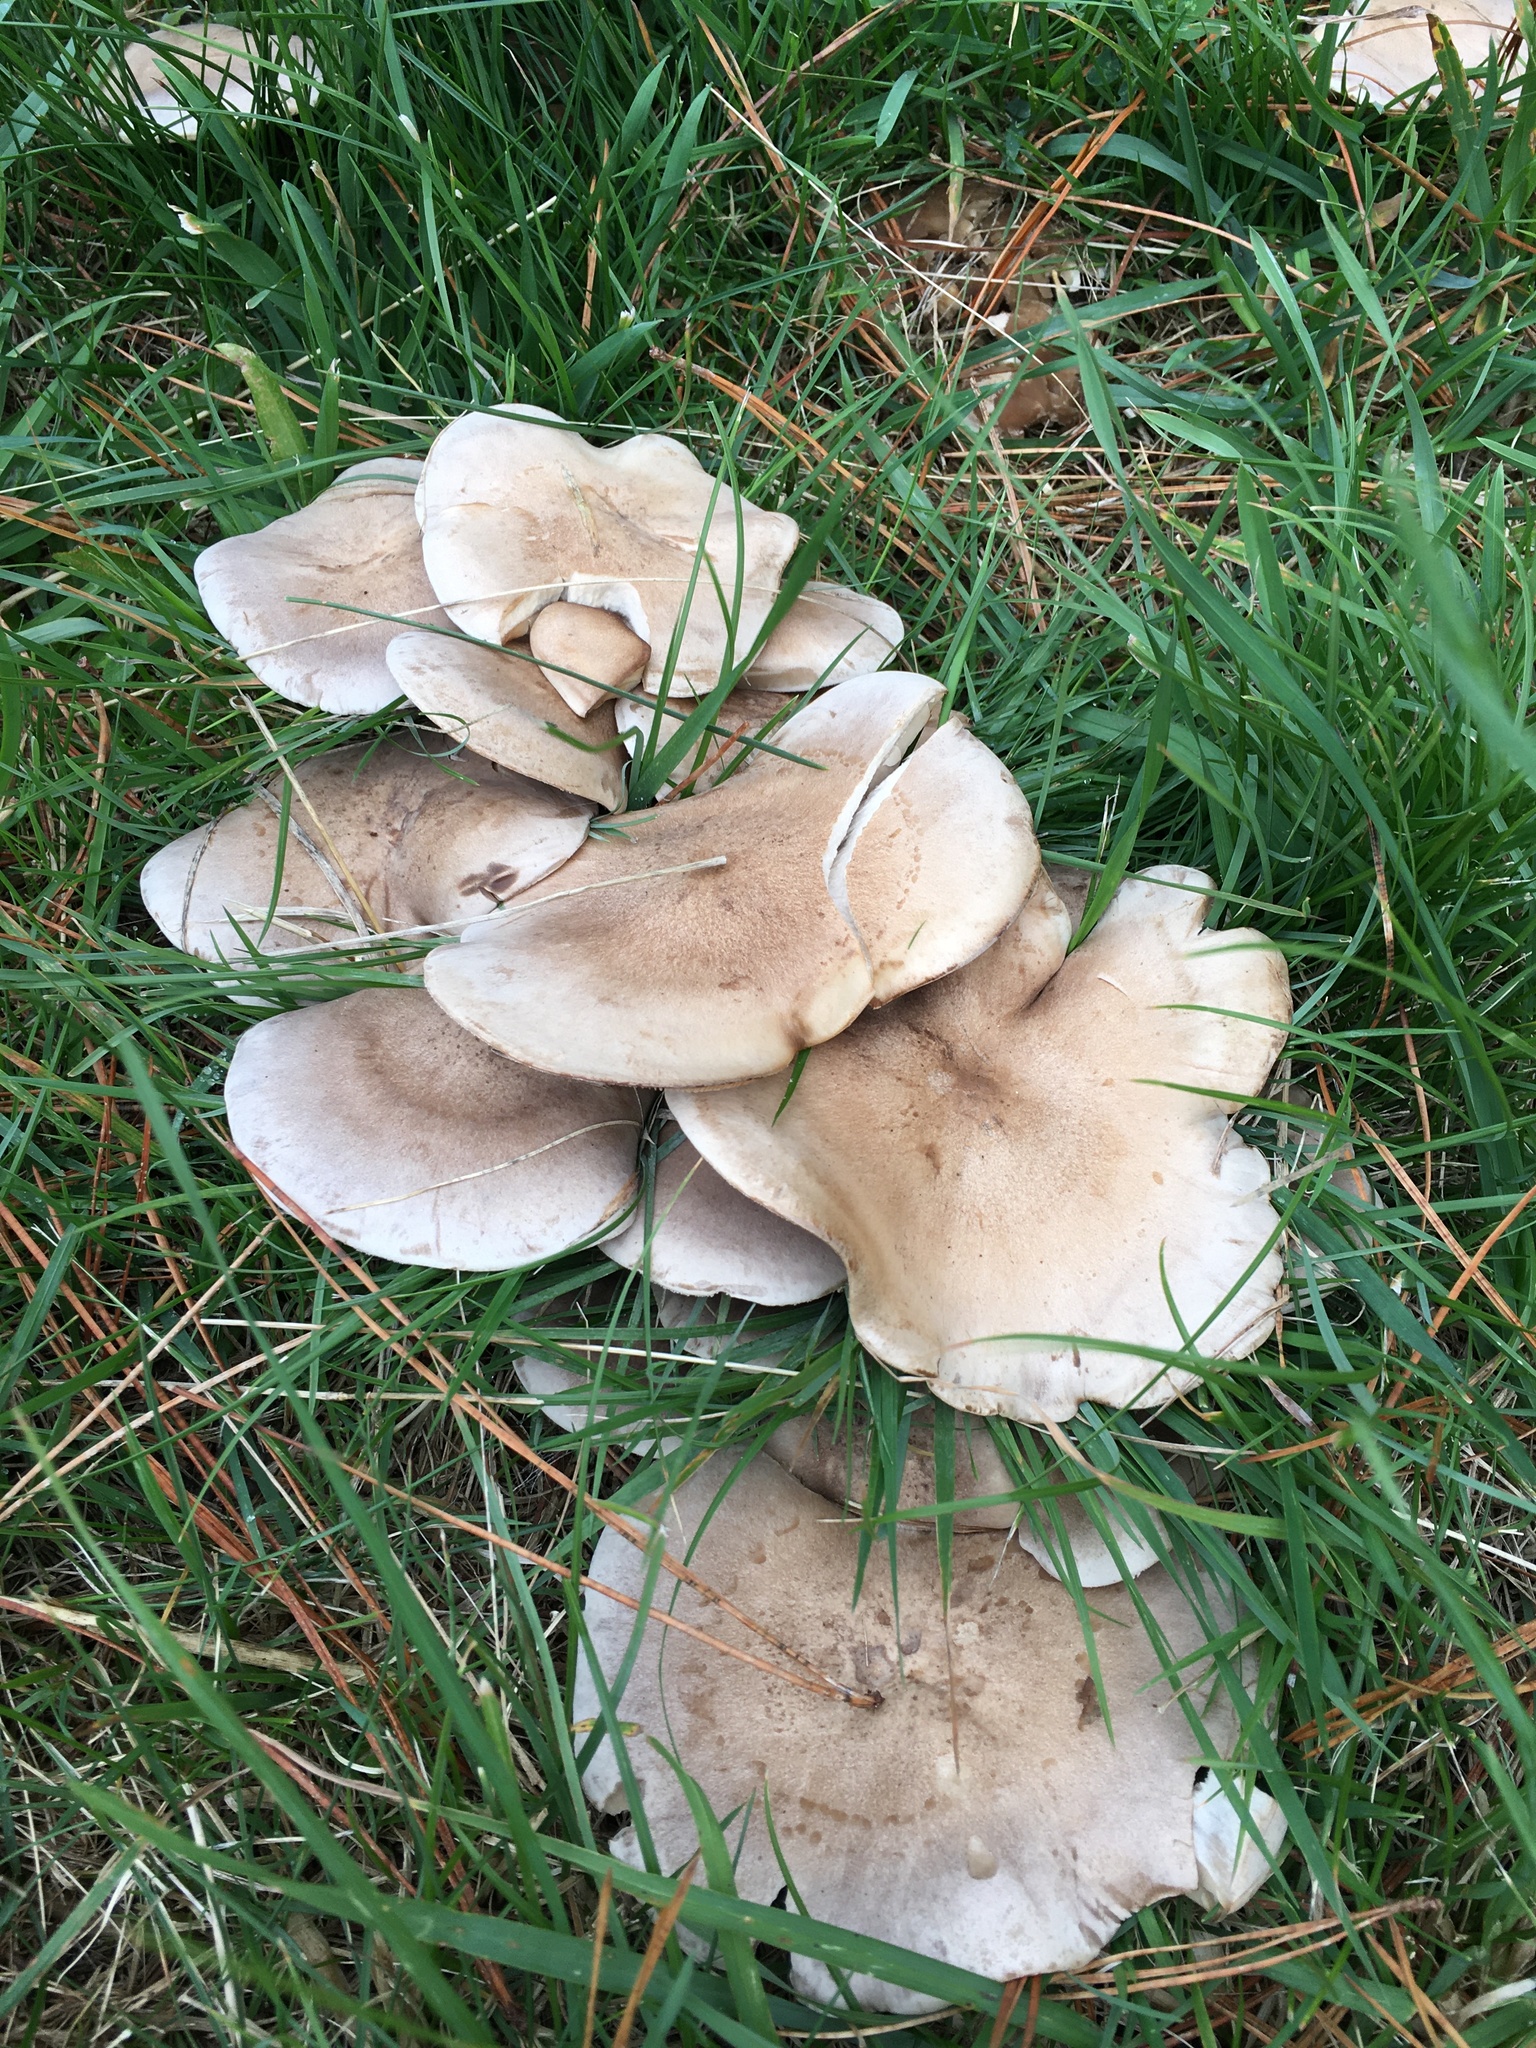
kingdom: Fungi
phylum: Basidiomycota
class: Agaricomycetes
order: Agaricales
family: Tricholomataceae
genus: Clitocybe
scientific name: Clitocybe nebularis
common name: Clouded agaric
